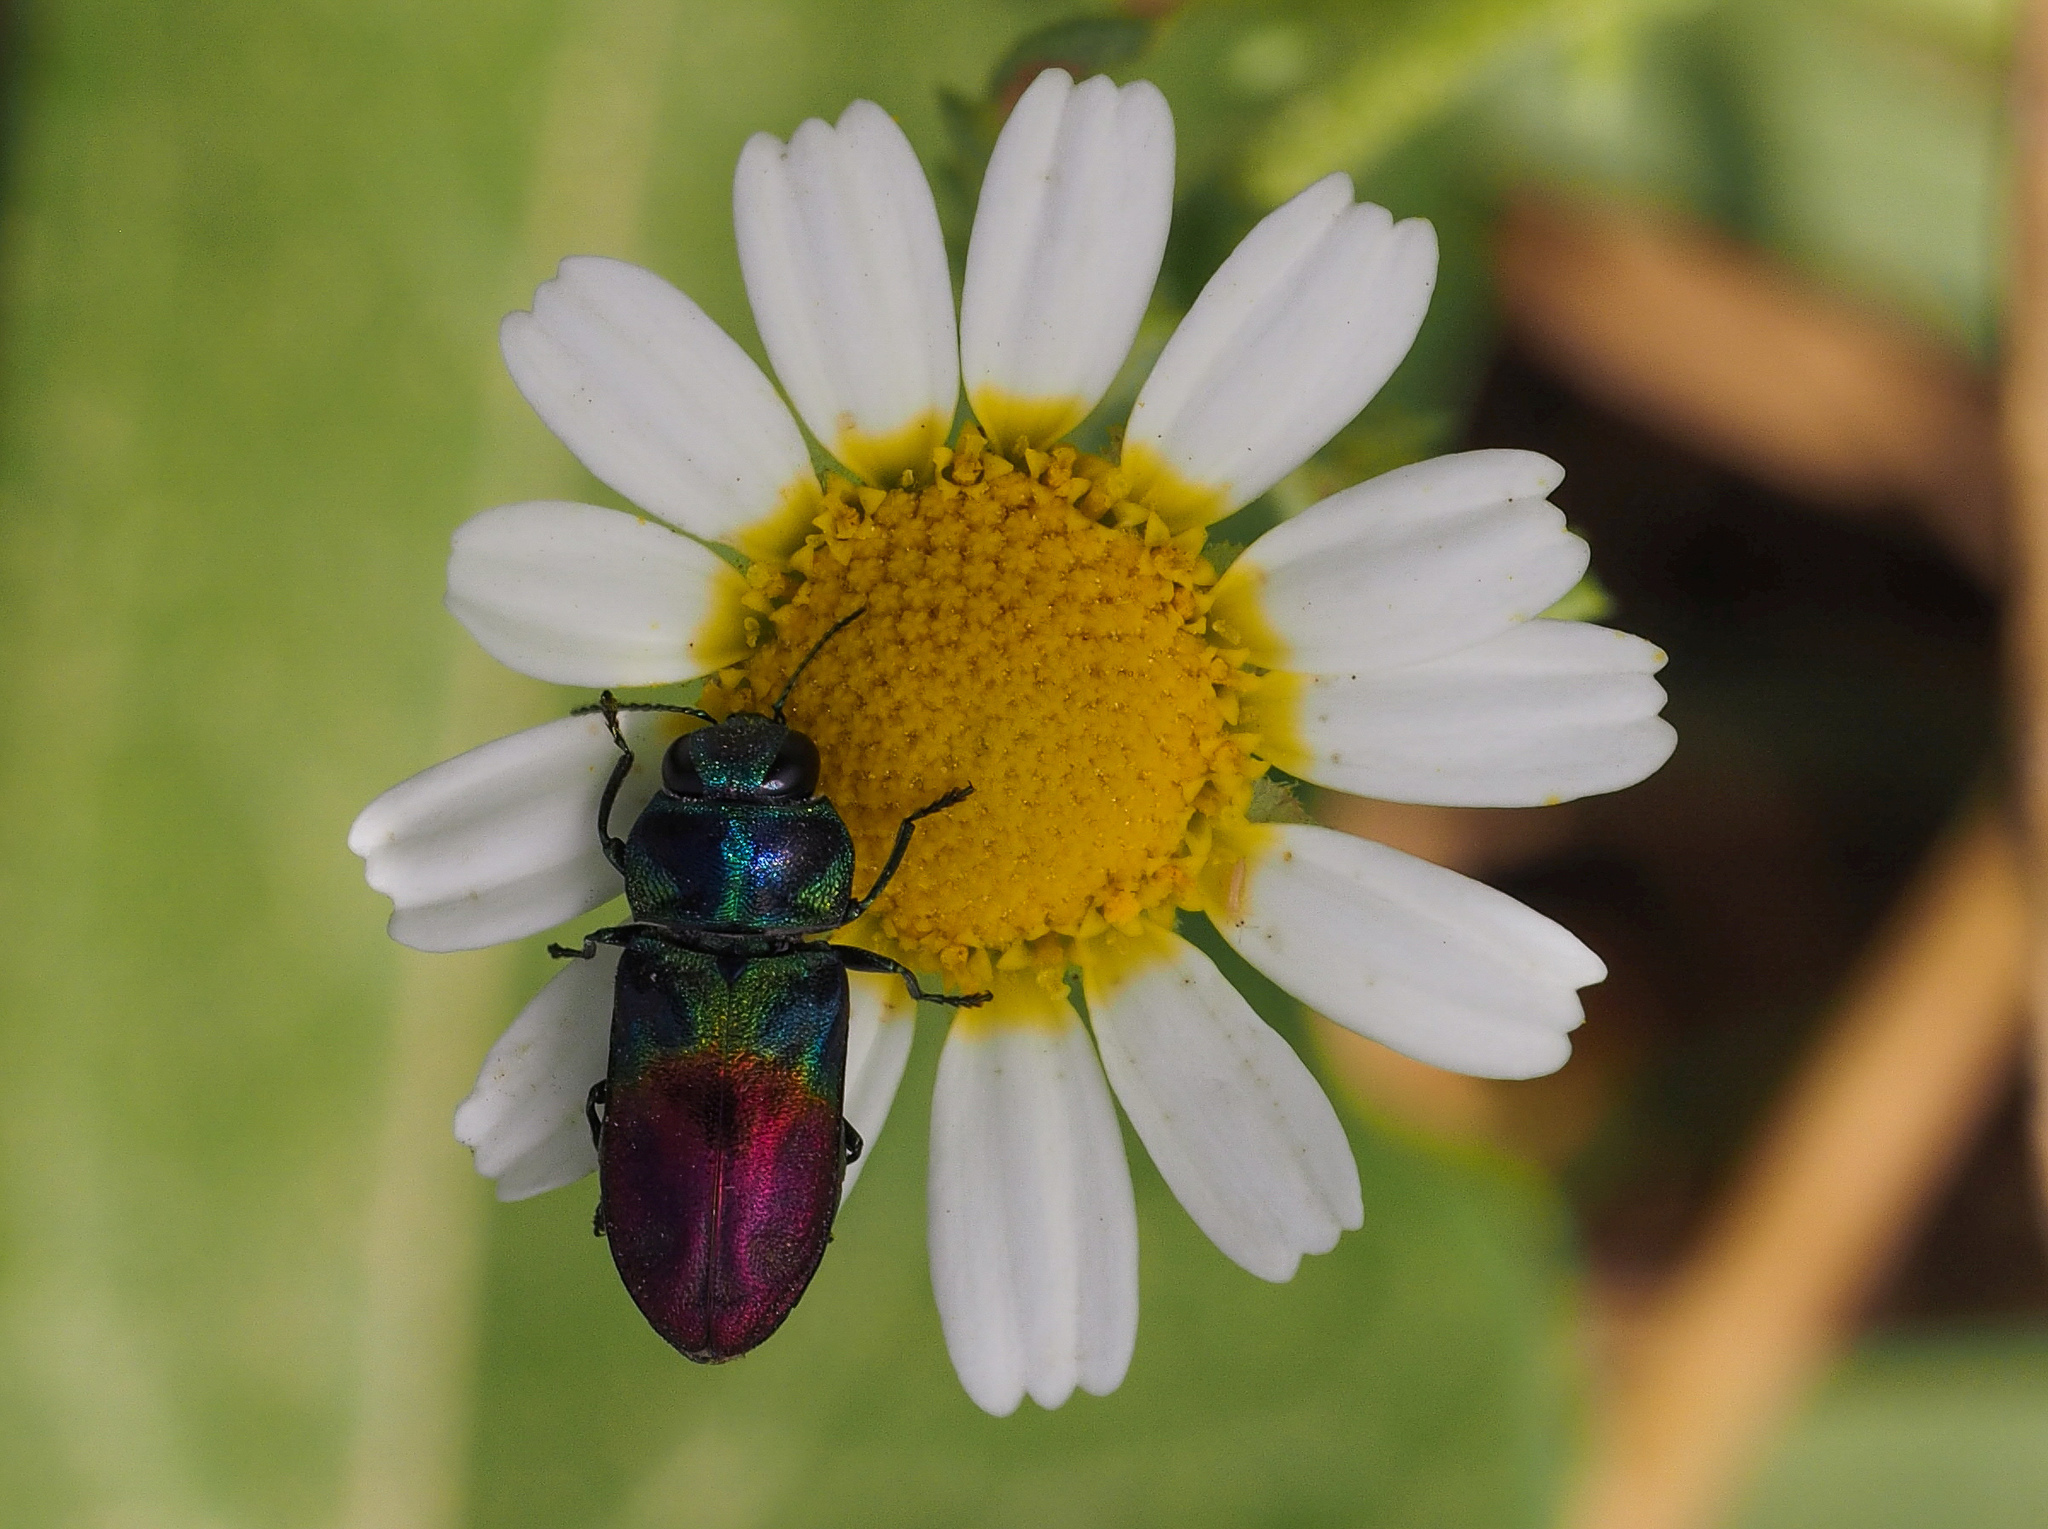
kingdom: Animalia
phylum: Arthropoda
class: Insecta
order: Coleoptera
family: Buprestidae
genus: Anthaxia
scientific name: Anthaxia dimidiata
